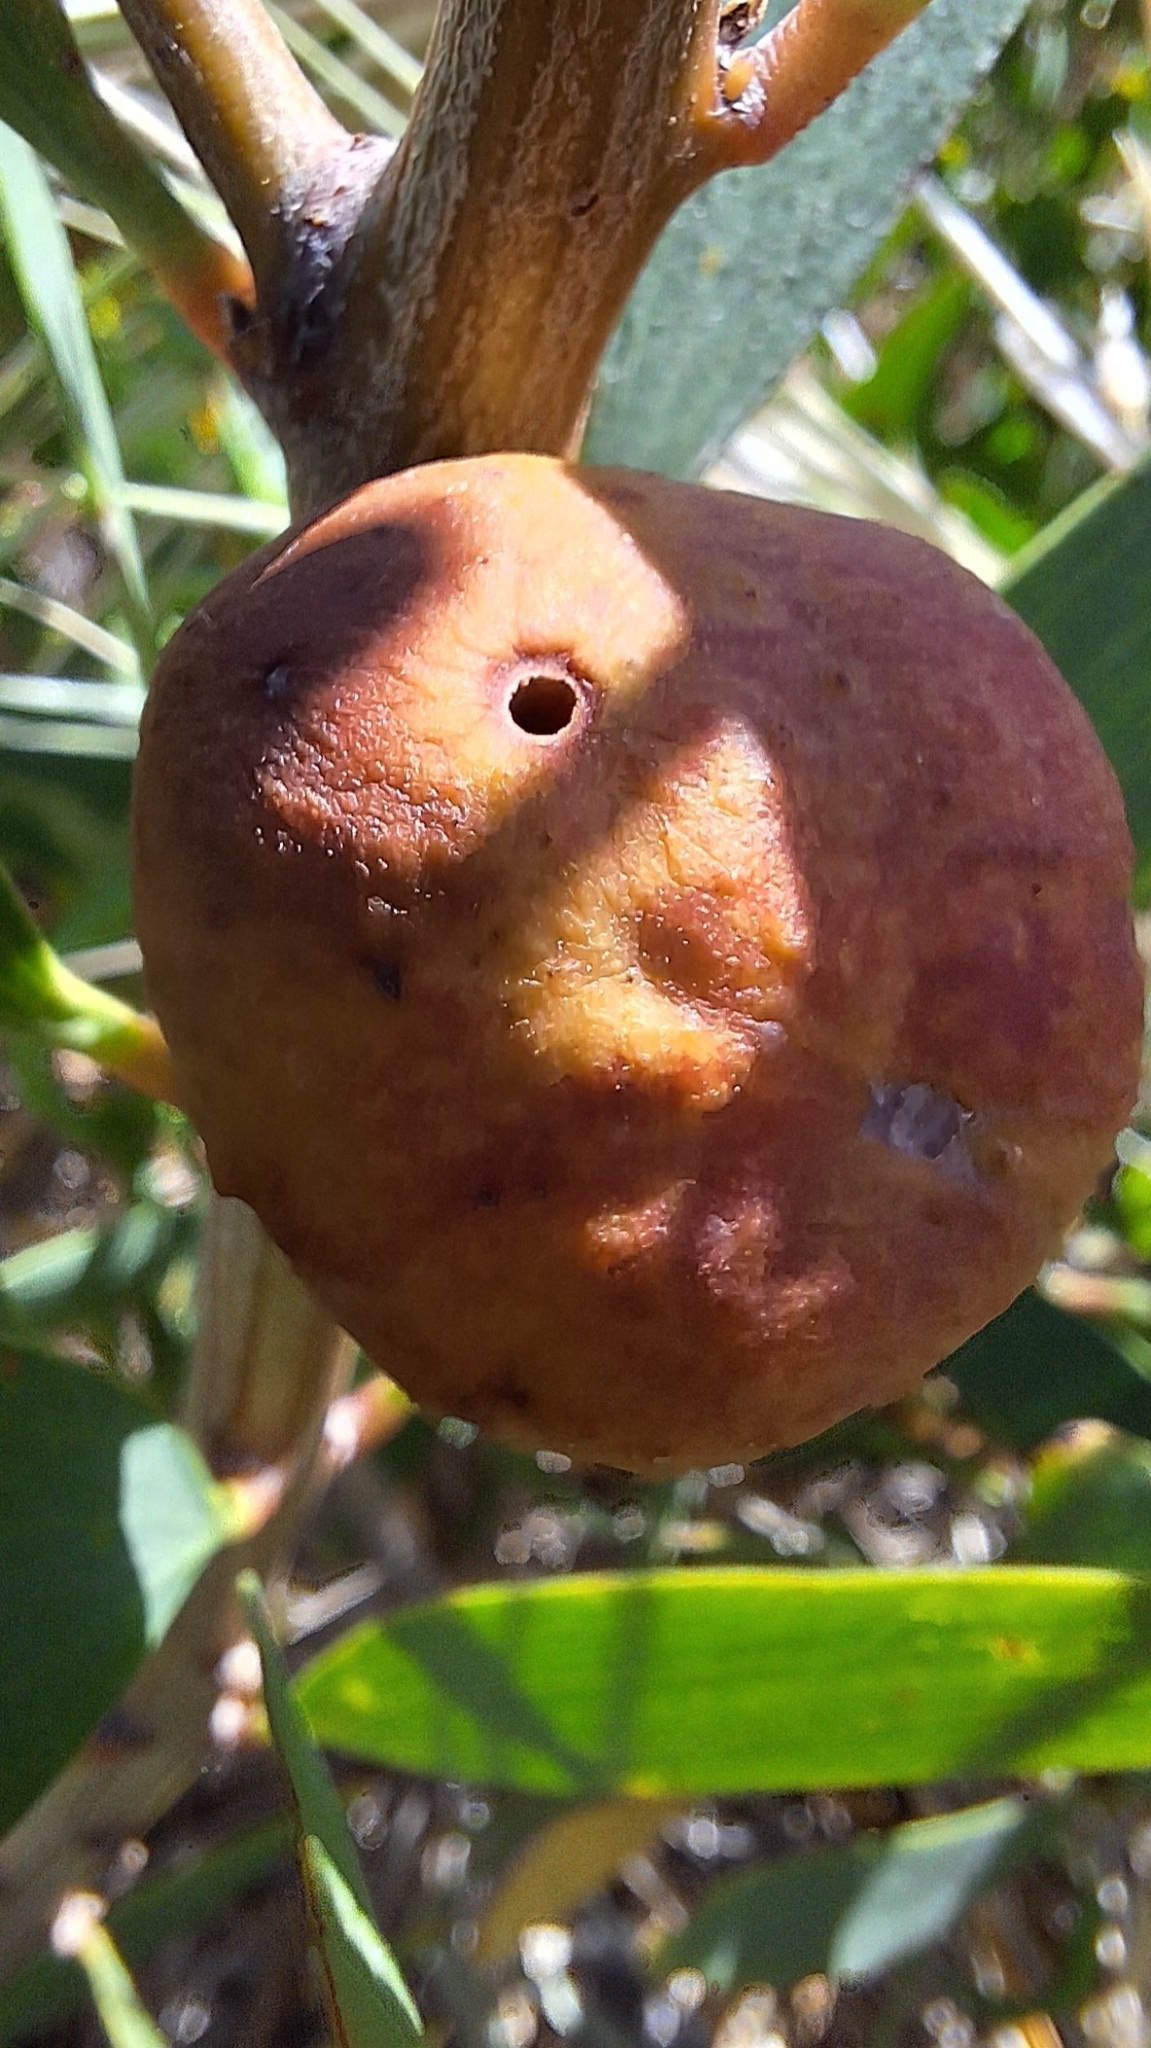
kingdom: Animalia
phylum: Arthropoda
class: Insecta
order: Hymenoptera
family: Pteromalidae
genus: Trichilogaster
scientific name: Trichilogaster acaciaelongifoliae
